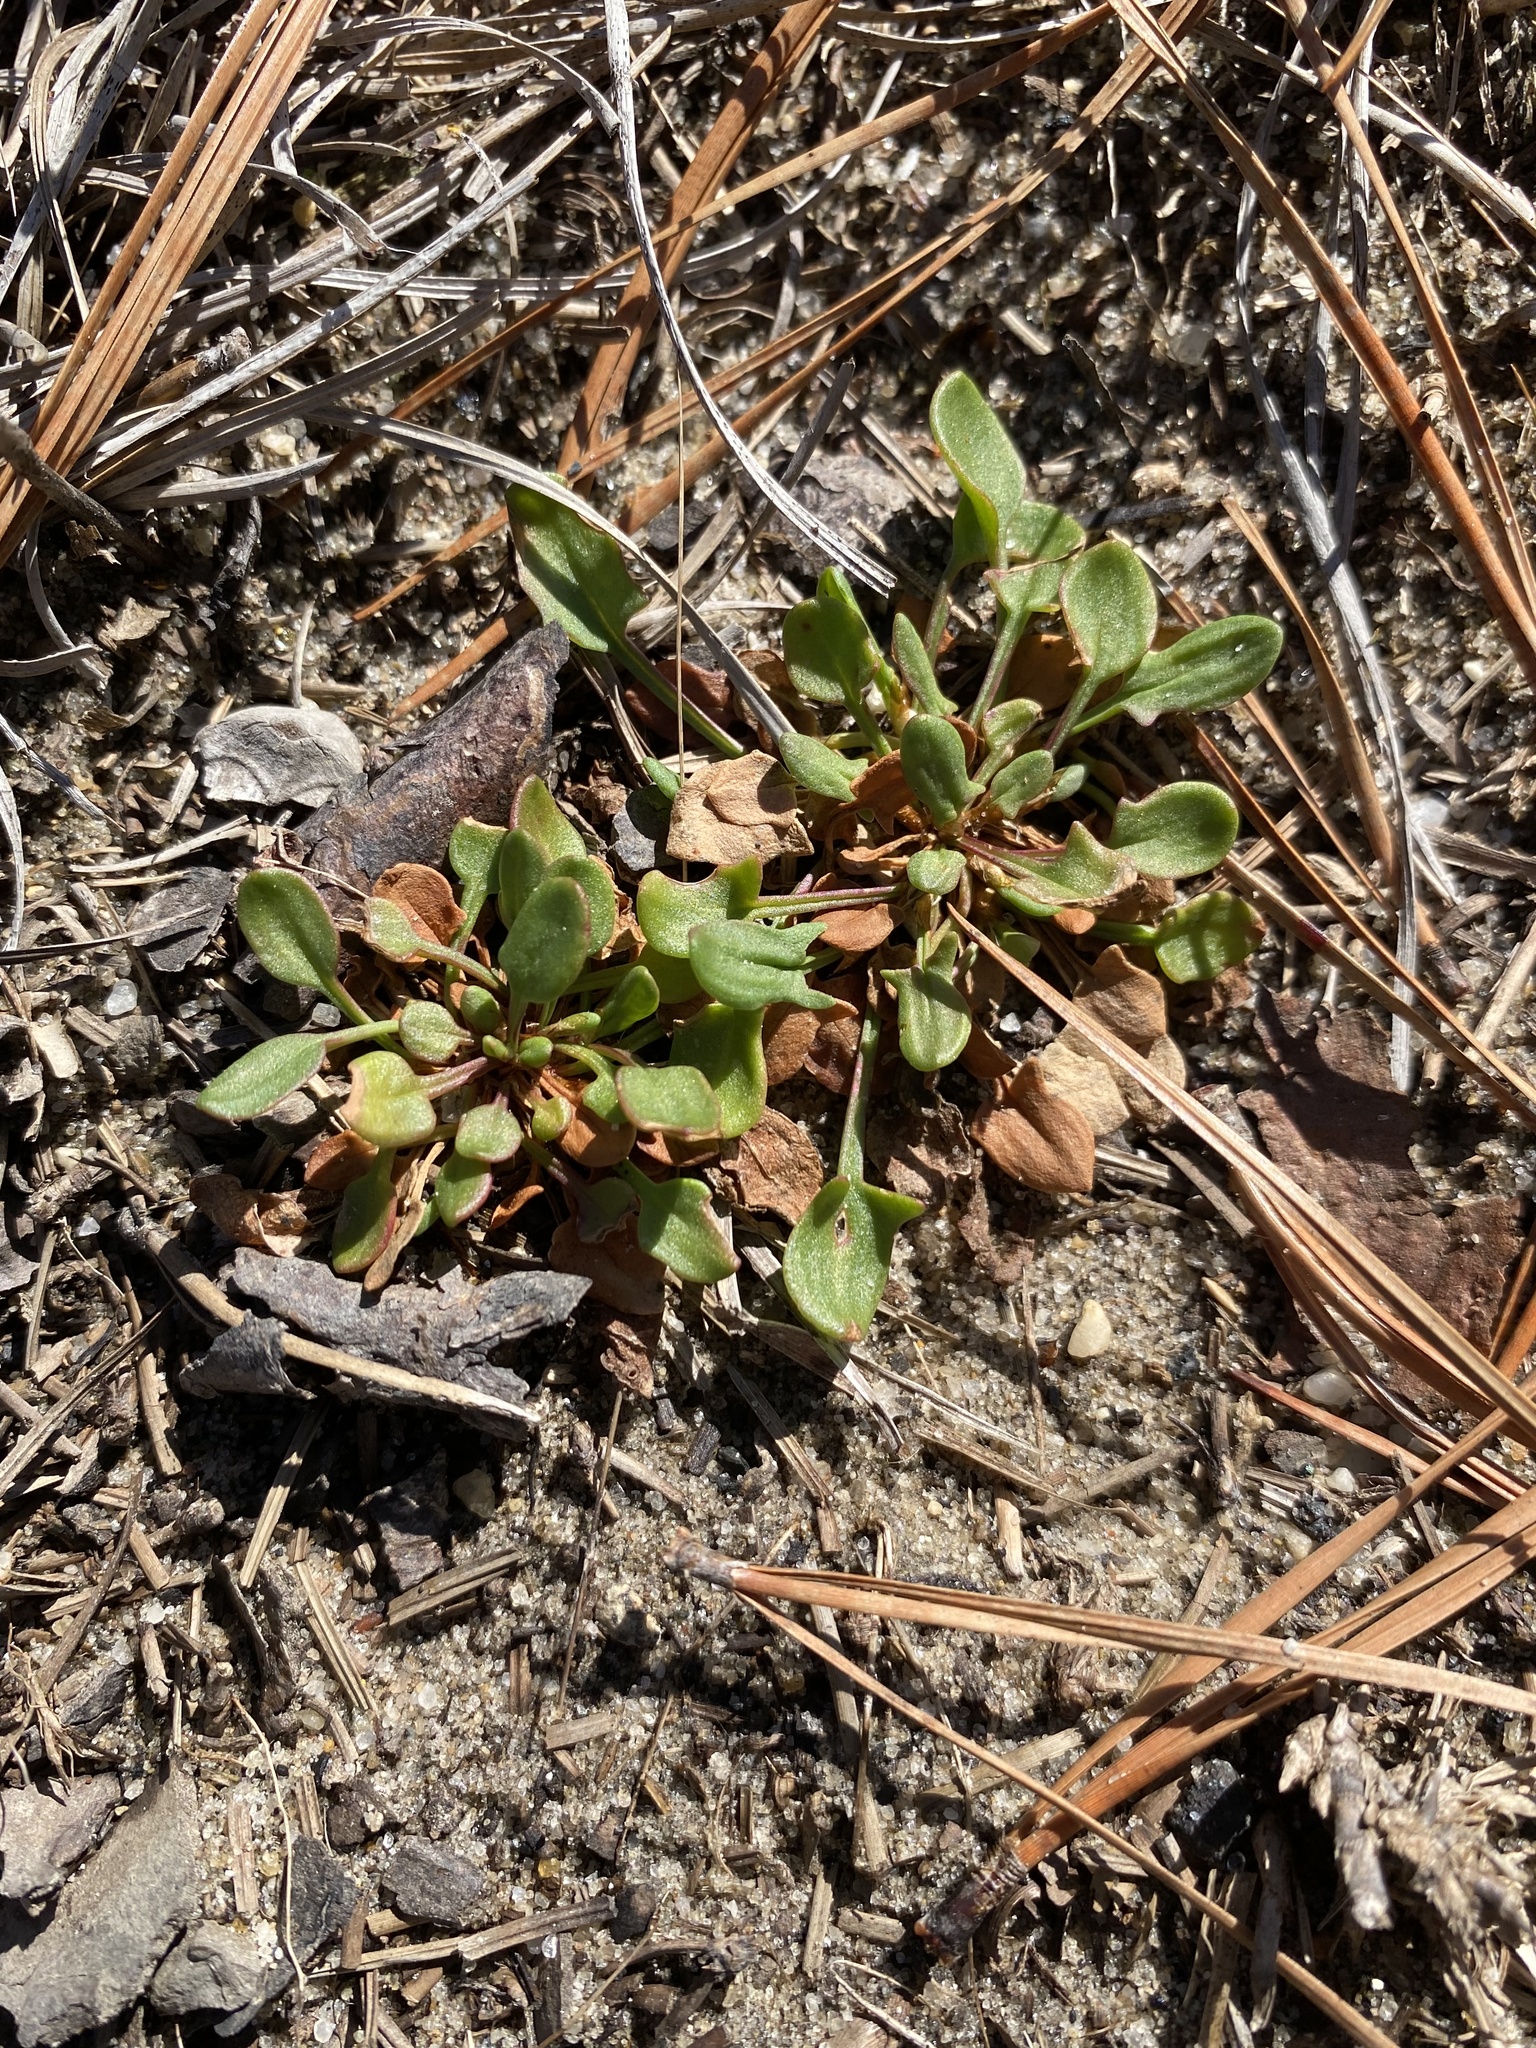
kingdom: Plantae
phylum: Tracheophyta
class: Magnoliopsida
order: Caryophyllales
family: Polygonaceae
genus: Rumex
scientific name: Rumex acetosella
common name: Common sheep sorrel
